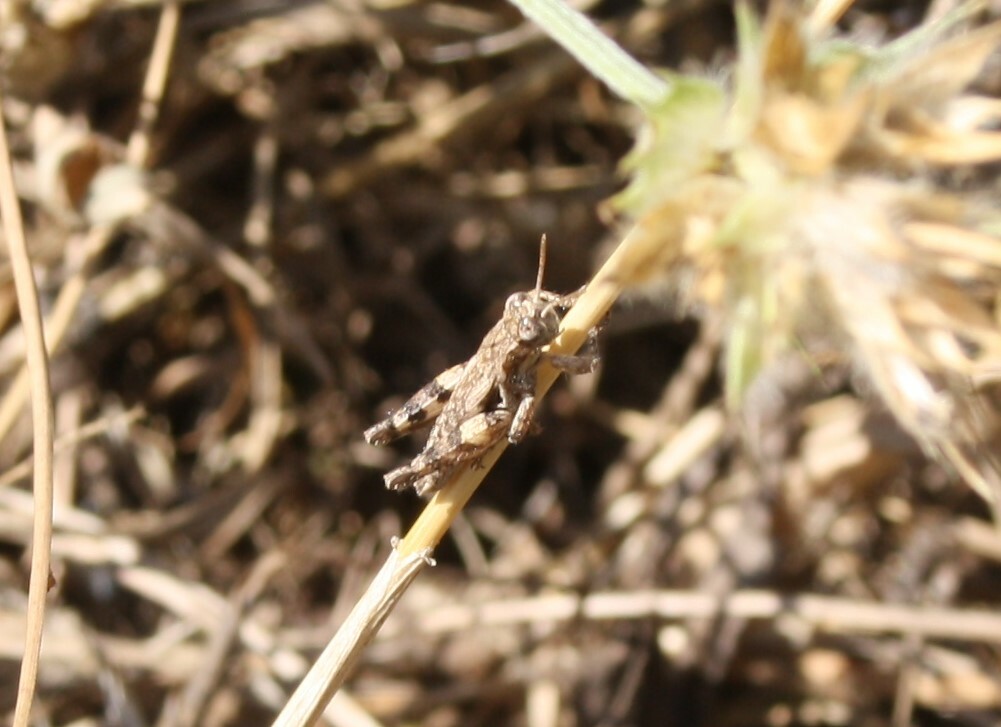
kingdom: Animalia
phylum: Arthropoda
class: Insecta
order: Orthoptera
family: Acrididae
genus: Pezotettix
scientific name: Pezotettix giornae
